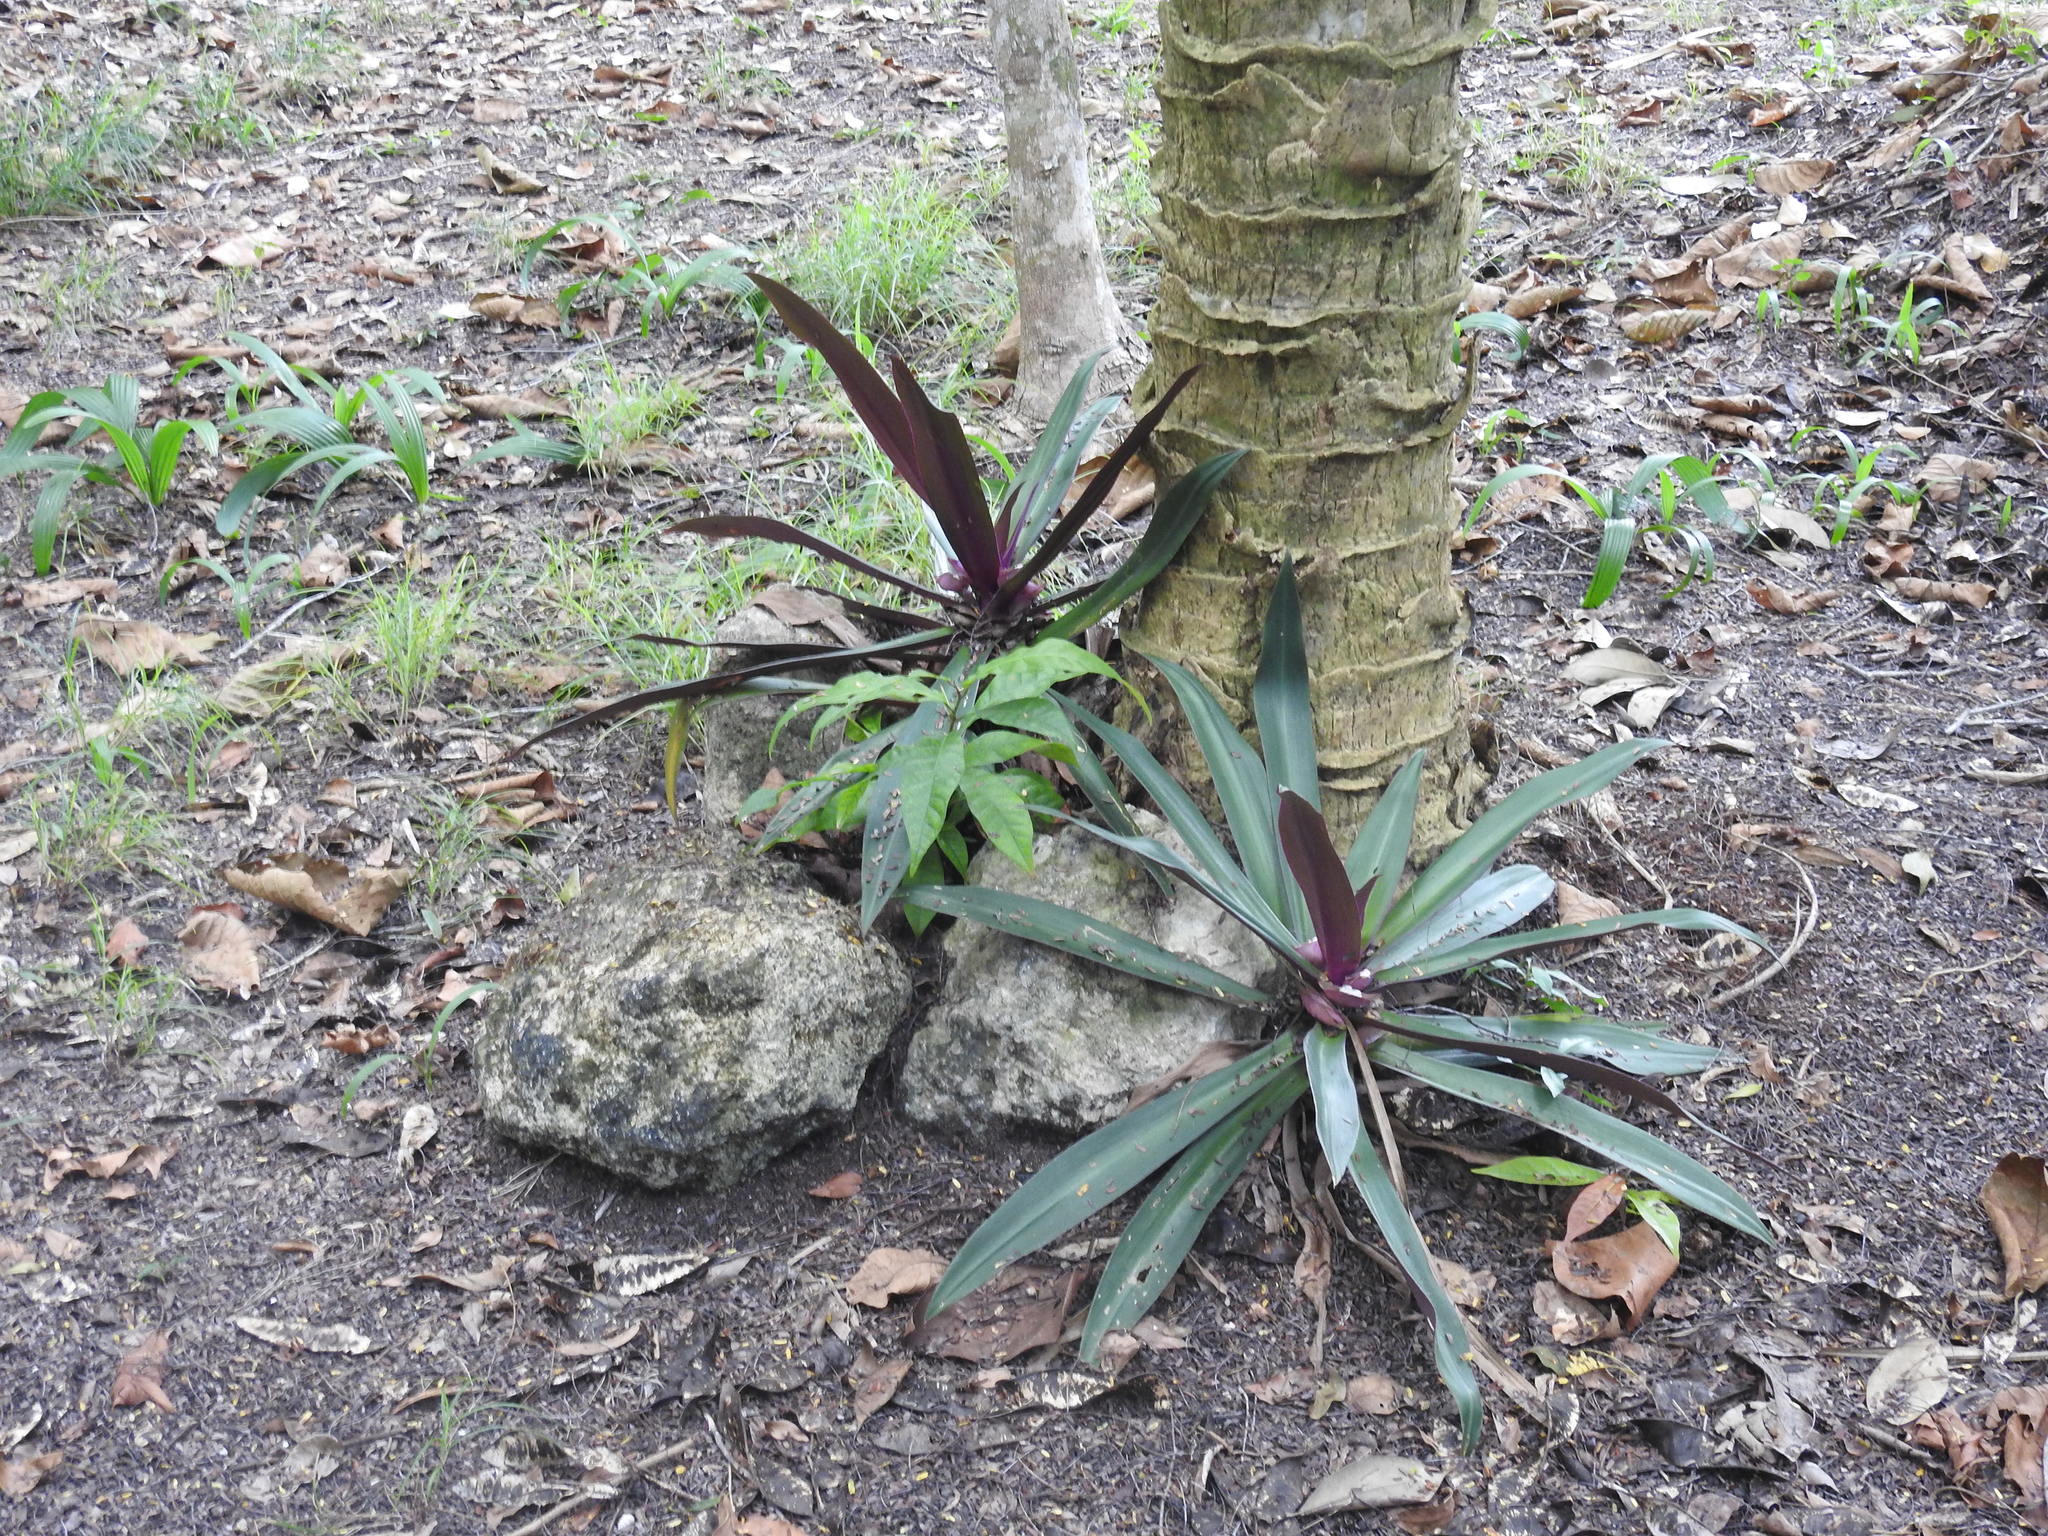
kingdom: Plantae
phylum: Tracheophyta
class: Liliopsida
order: Commelinales
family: Commelinaceae
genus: Tradescantia
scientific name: Tradescantia spathacea
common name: Boatlily
